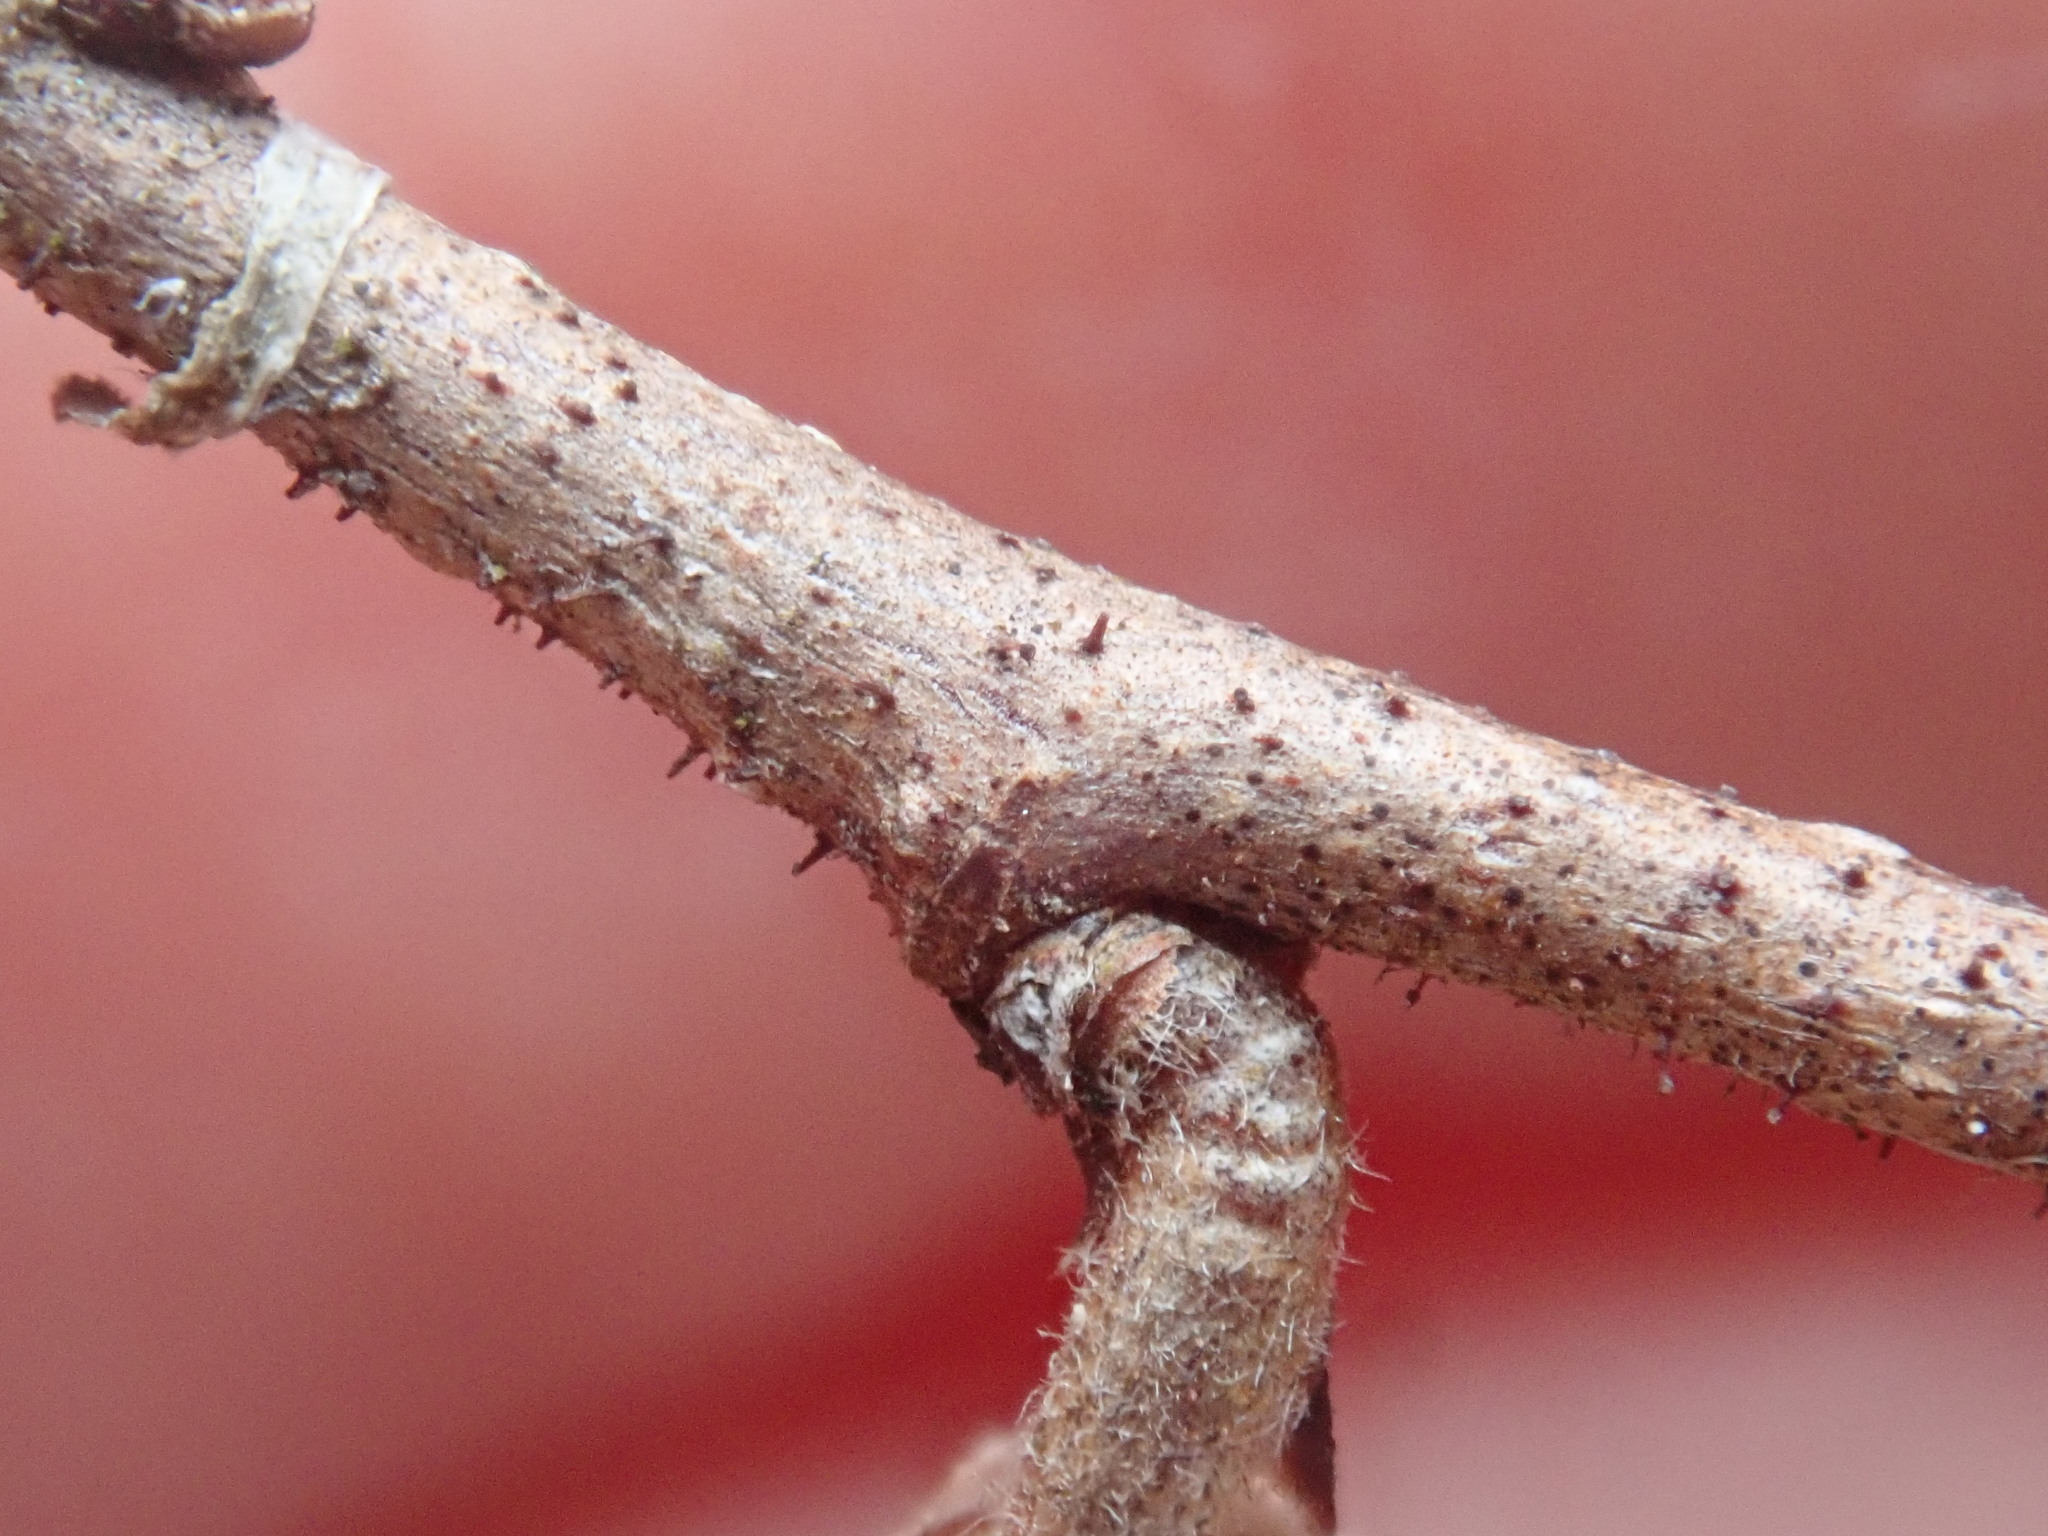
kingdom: Plantae
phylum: Tracheophyta
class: Magnoliopsida
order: Fagales
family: Betulaceae
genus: Corylus
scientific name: Corylus americana
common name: American hazel
